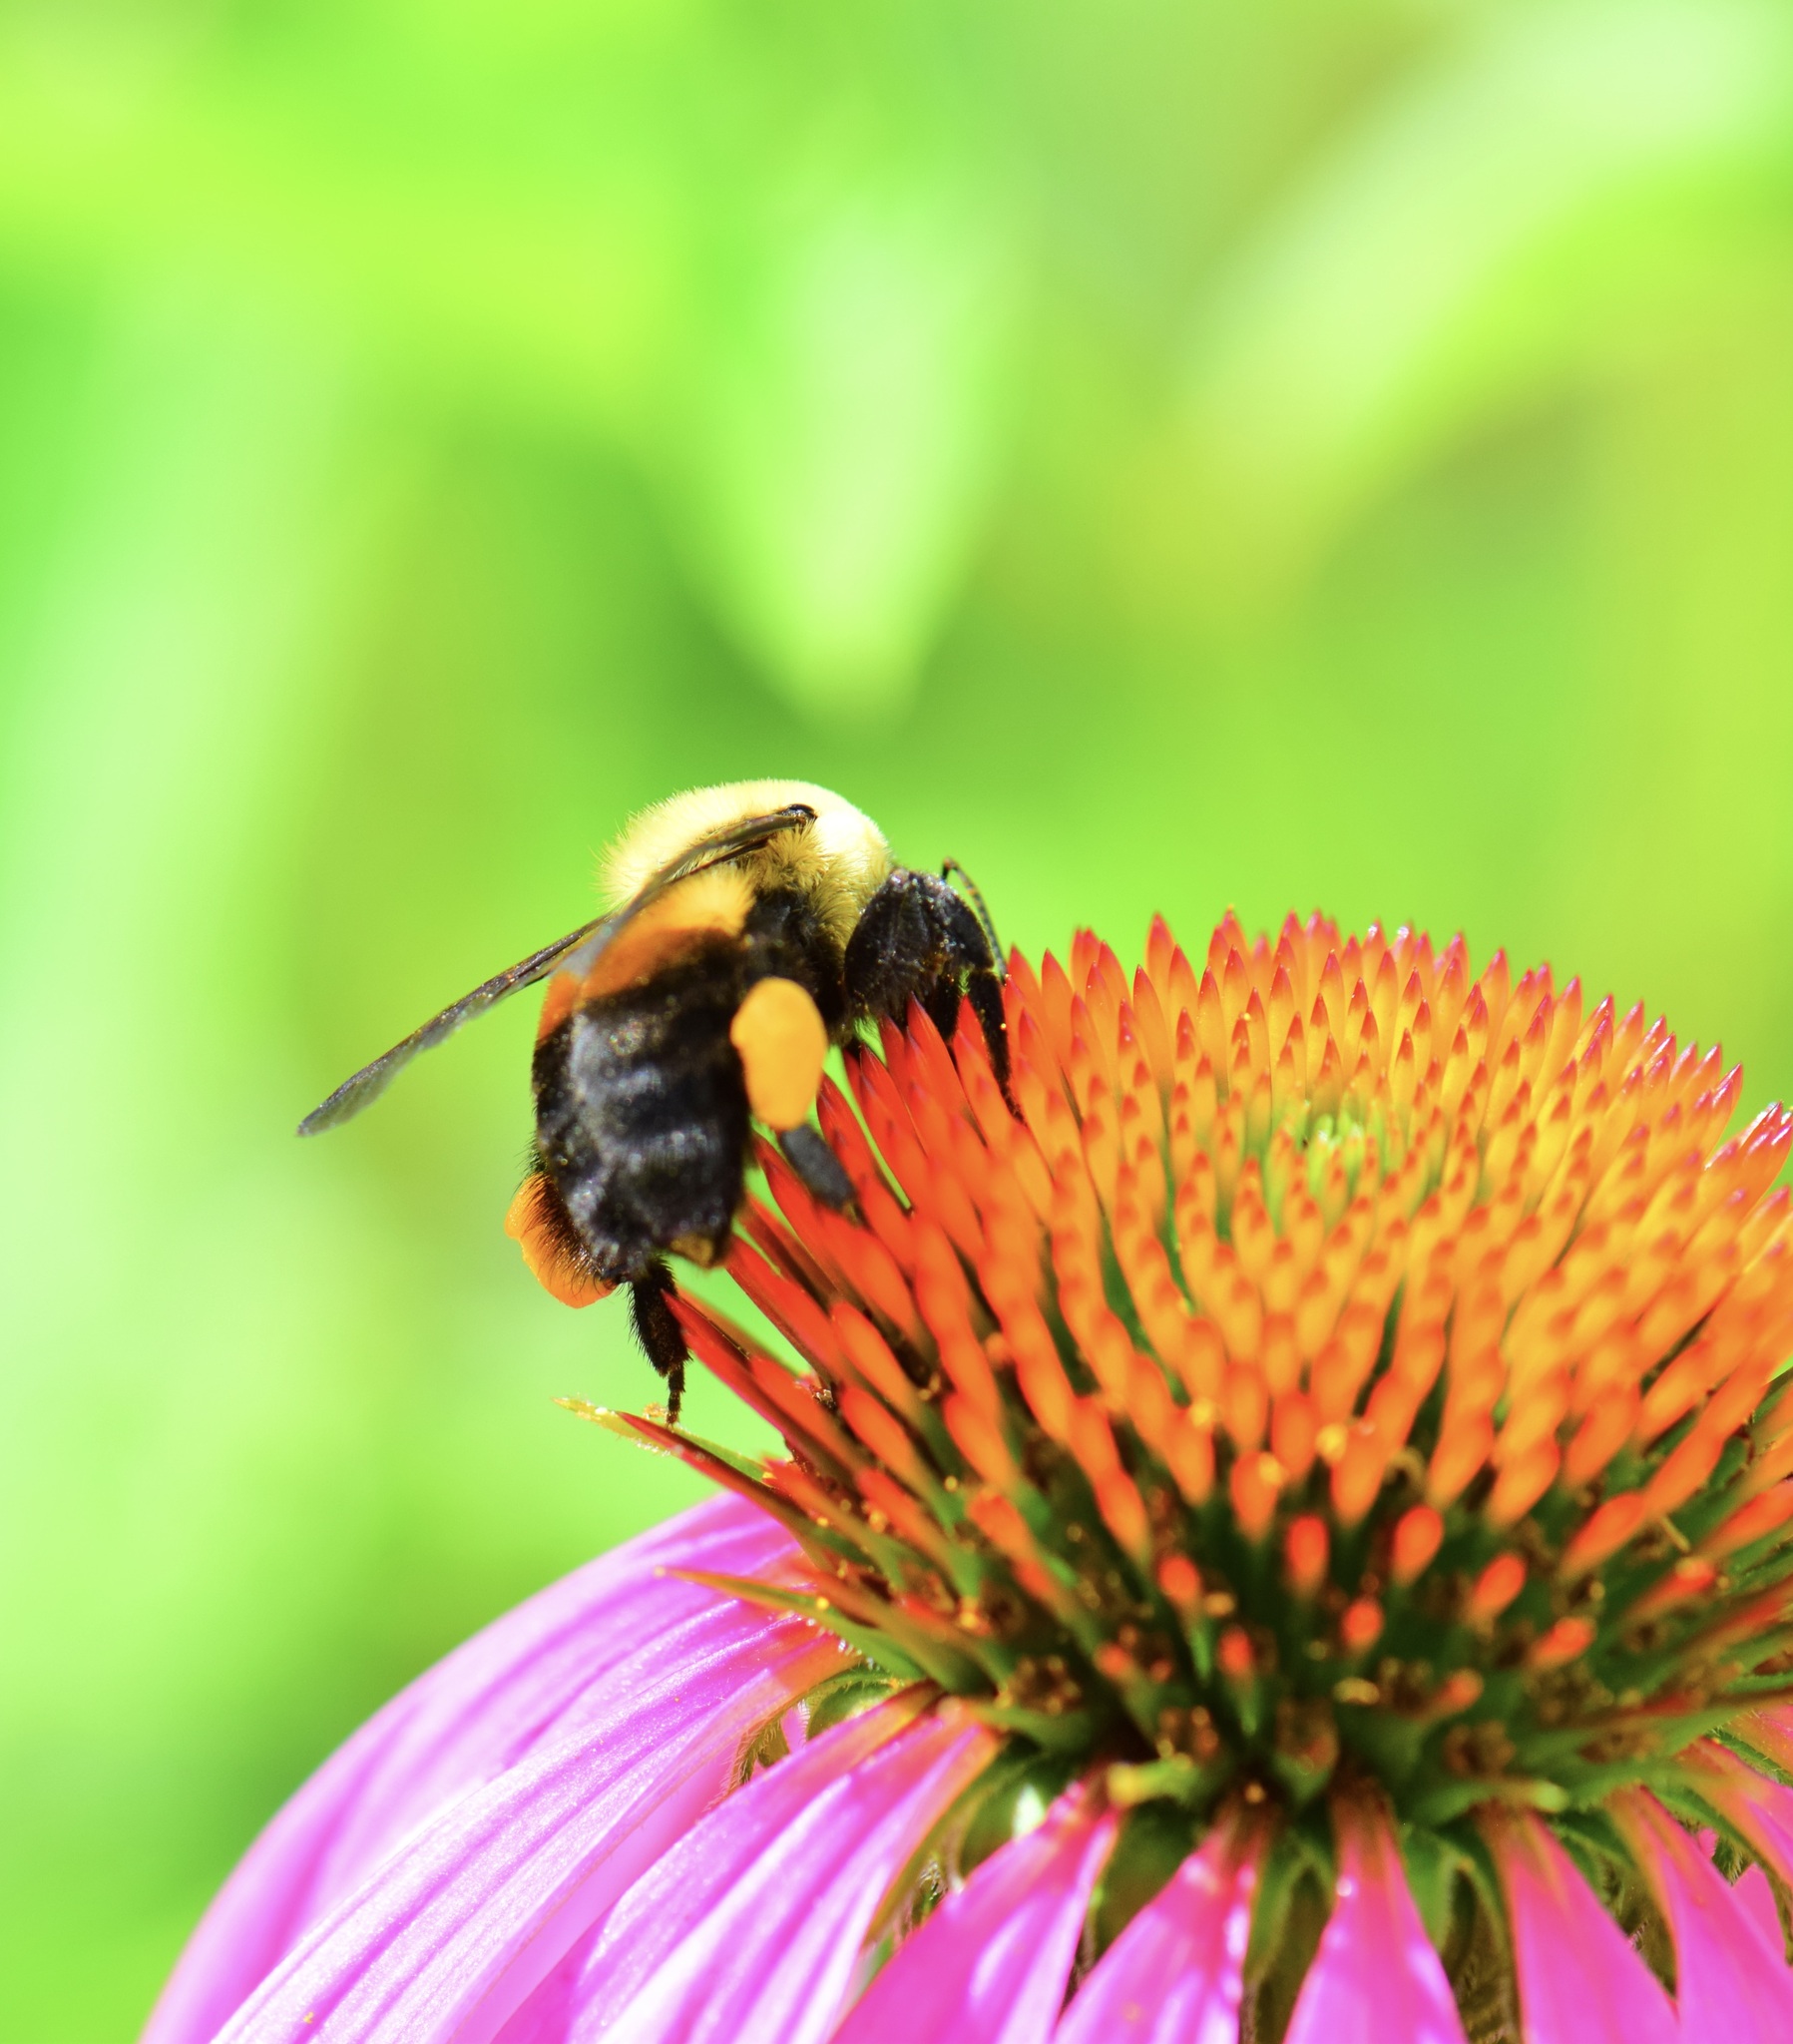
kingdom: Animalia
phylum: Arthropoda
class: Insecta
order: Hymenoptera
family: Apidae
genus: Bombus
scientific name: Bombus griseocollis
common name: Brown-belted bumble bee
